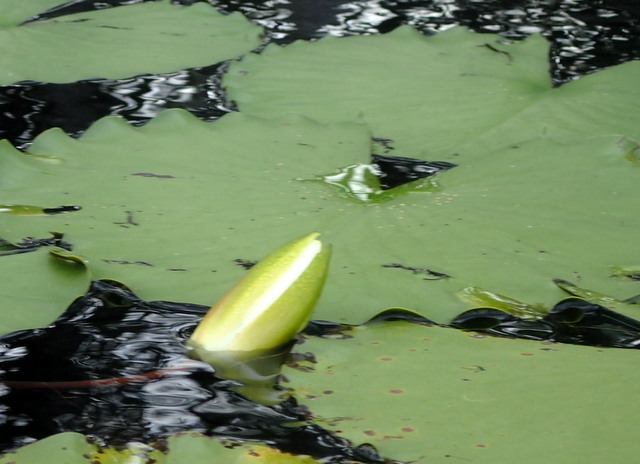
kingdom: Plantae
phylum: Tracheophyta
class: Magnoliopsida
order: Nymphaeales
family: Nymphaeaceae
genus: Nymphaea
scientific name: Nymphaea odorata
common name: Fragrant water-lily
